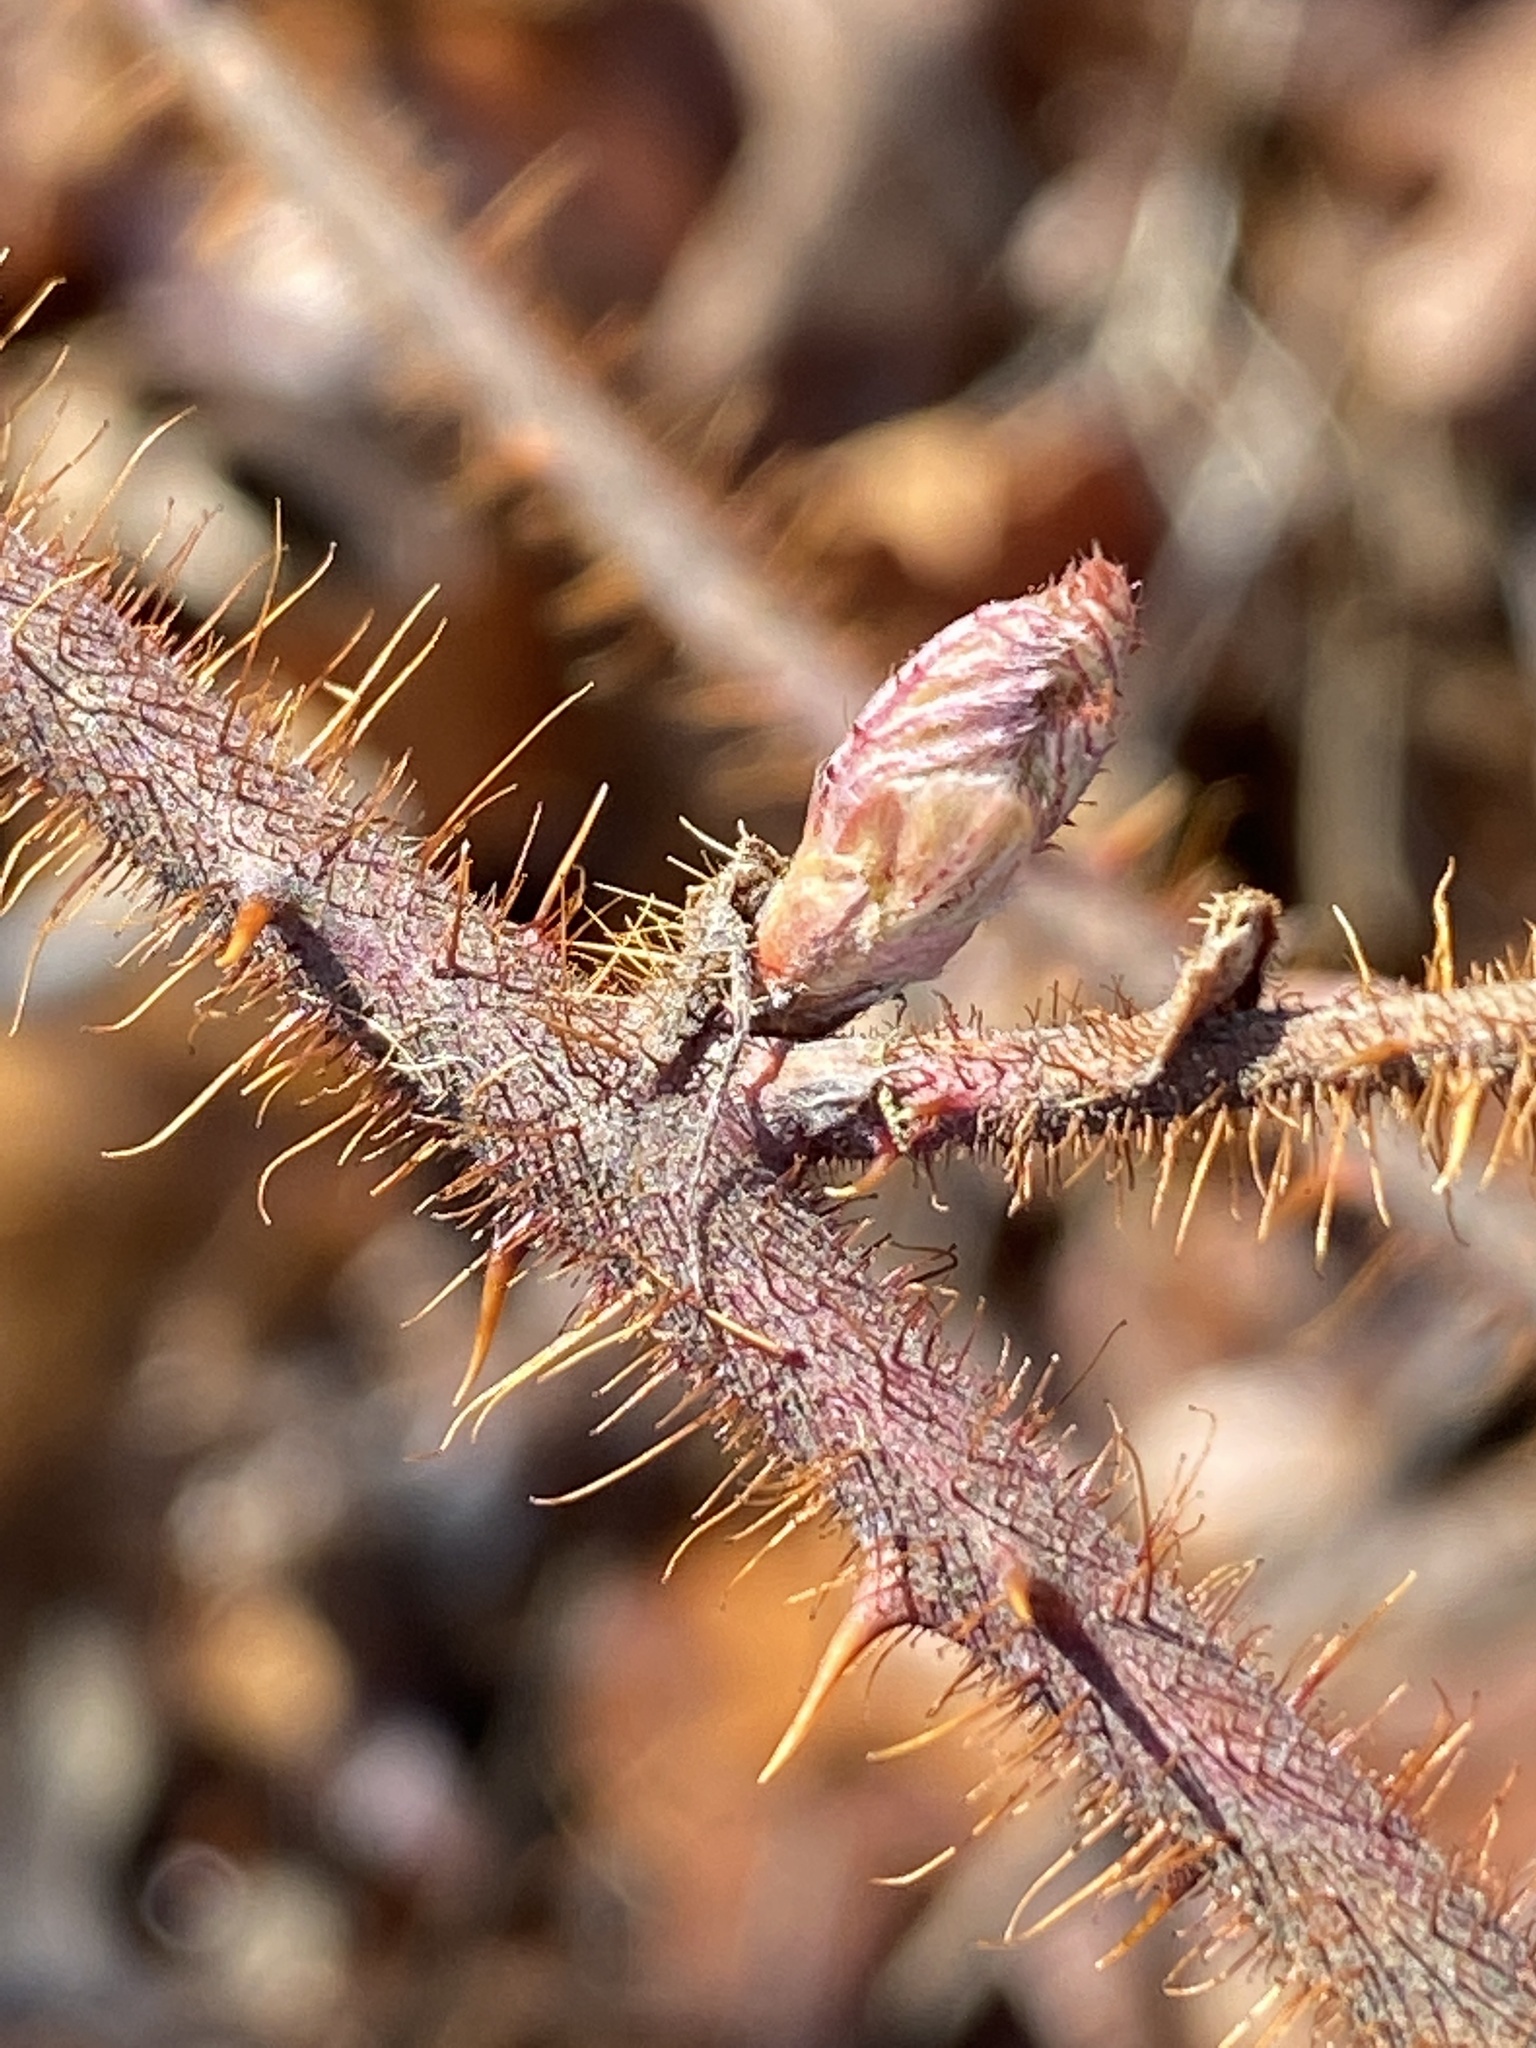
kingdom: Plantae
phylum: Tracheophyta
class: Magnoliopsida
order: Rosales
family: Rosaceae
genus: Rubus
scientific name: Rubus phoenicolasius
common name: Japanese wineberry
